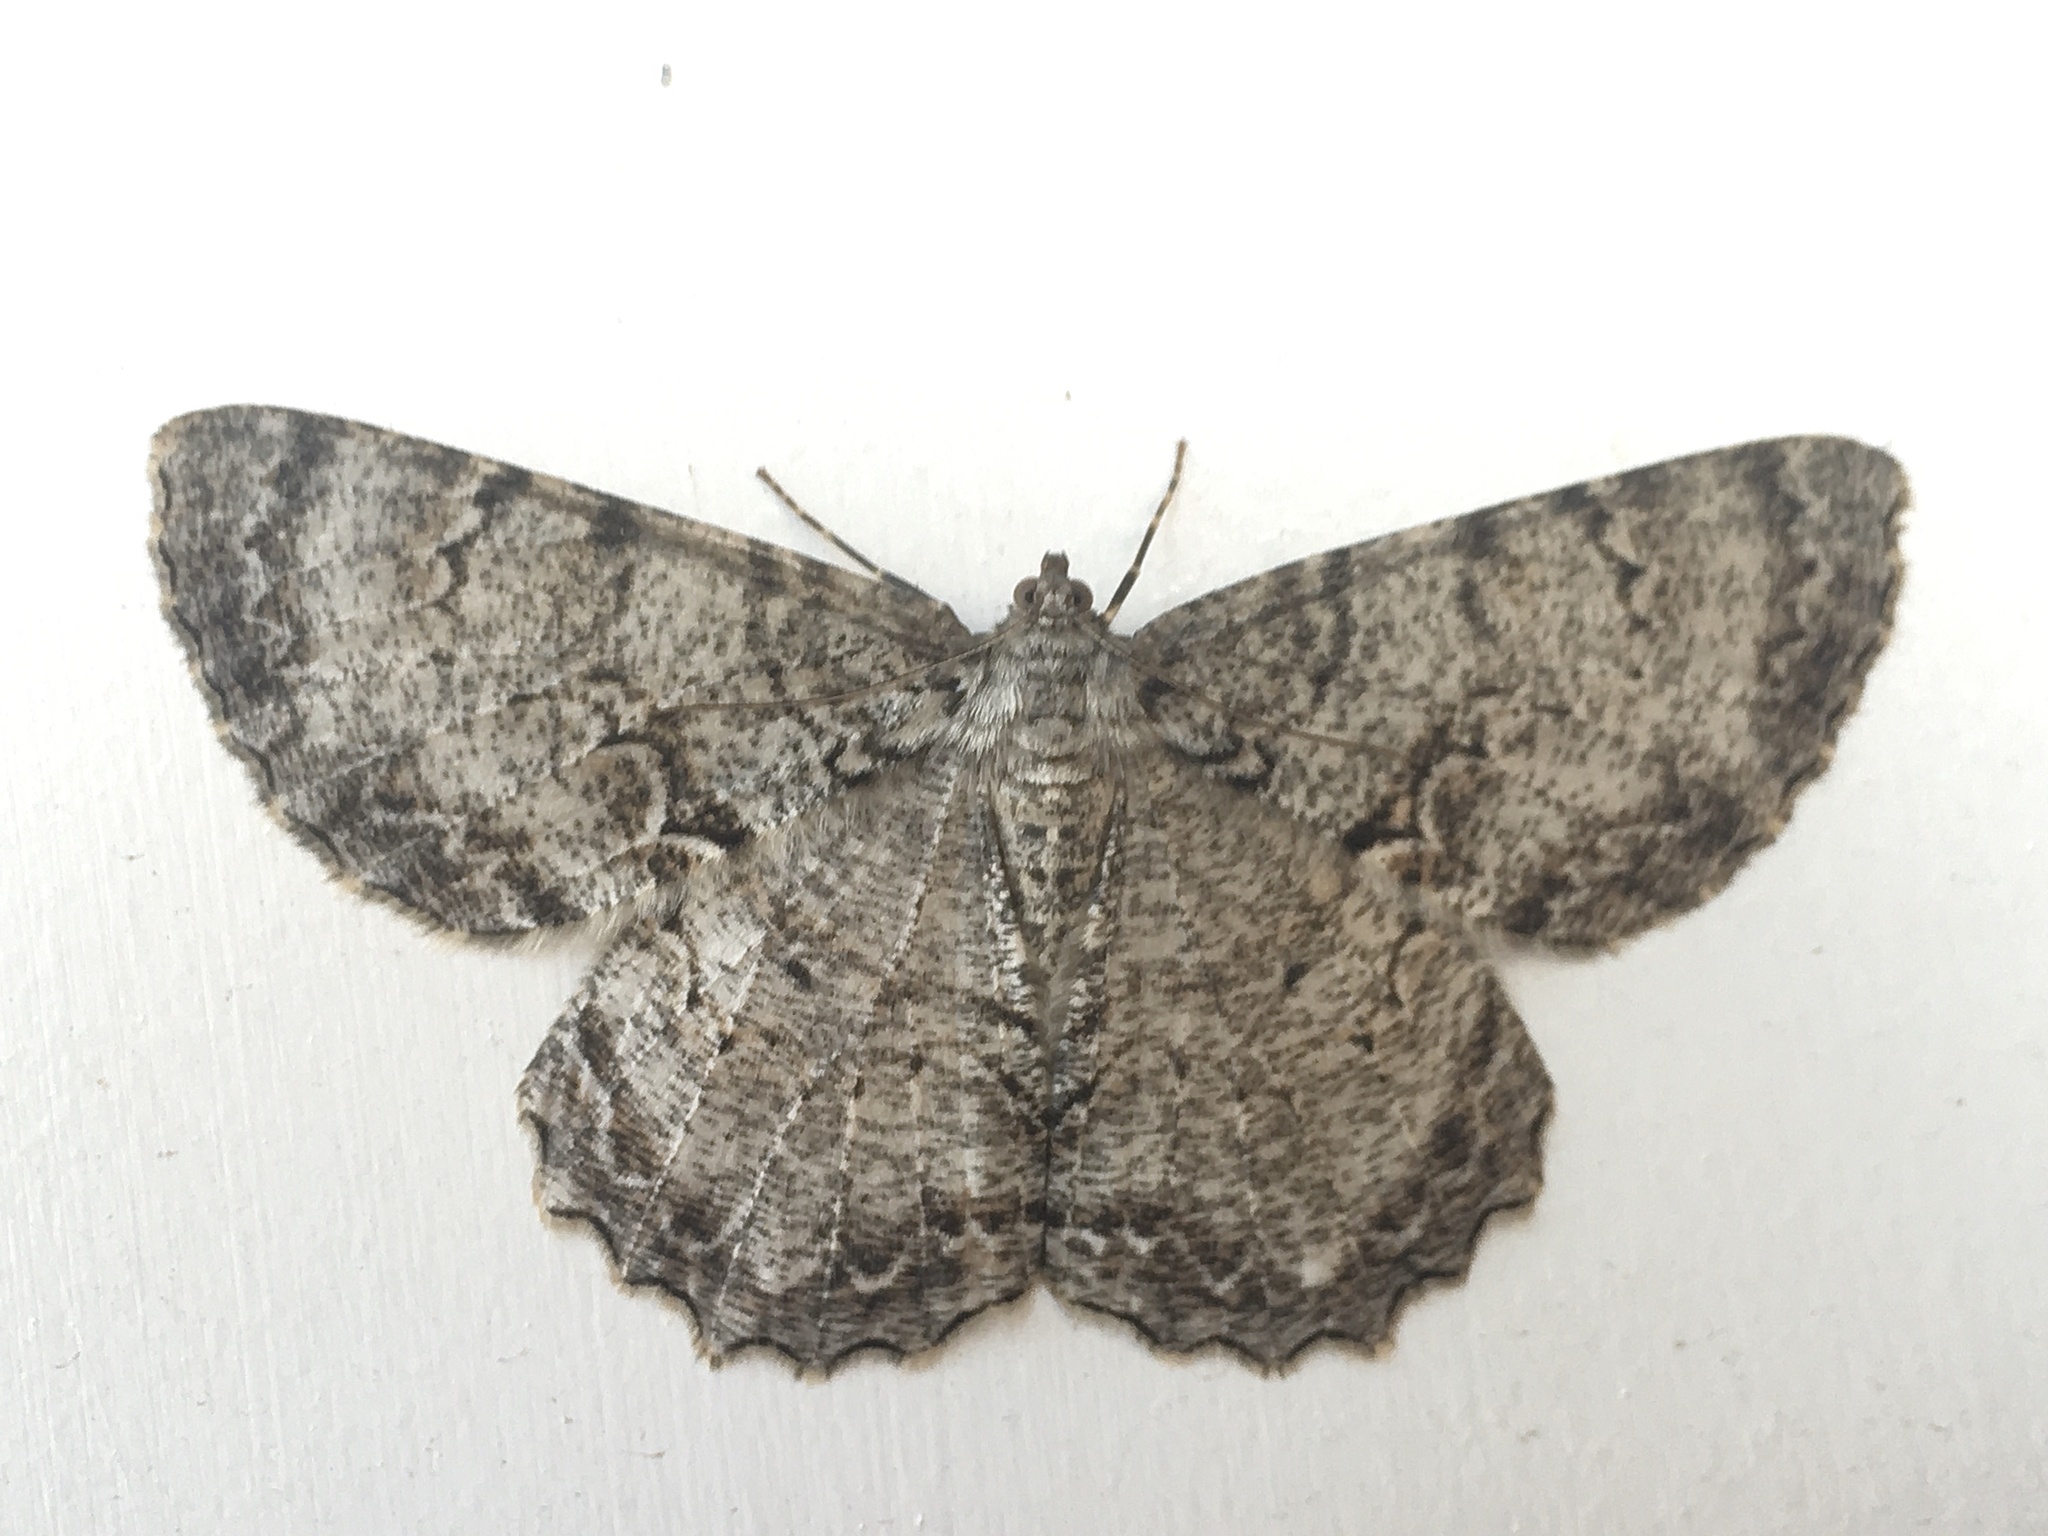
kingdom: Animalia
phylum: Arthropoda
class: Insecta
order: Lepidoptera
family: Geometridae
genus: Epimecis
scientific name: Epimecis hortaria
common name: Tulip-tree beauty
